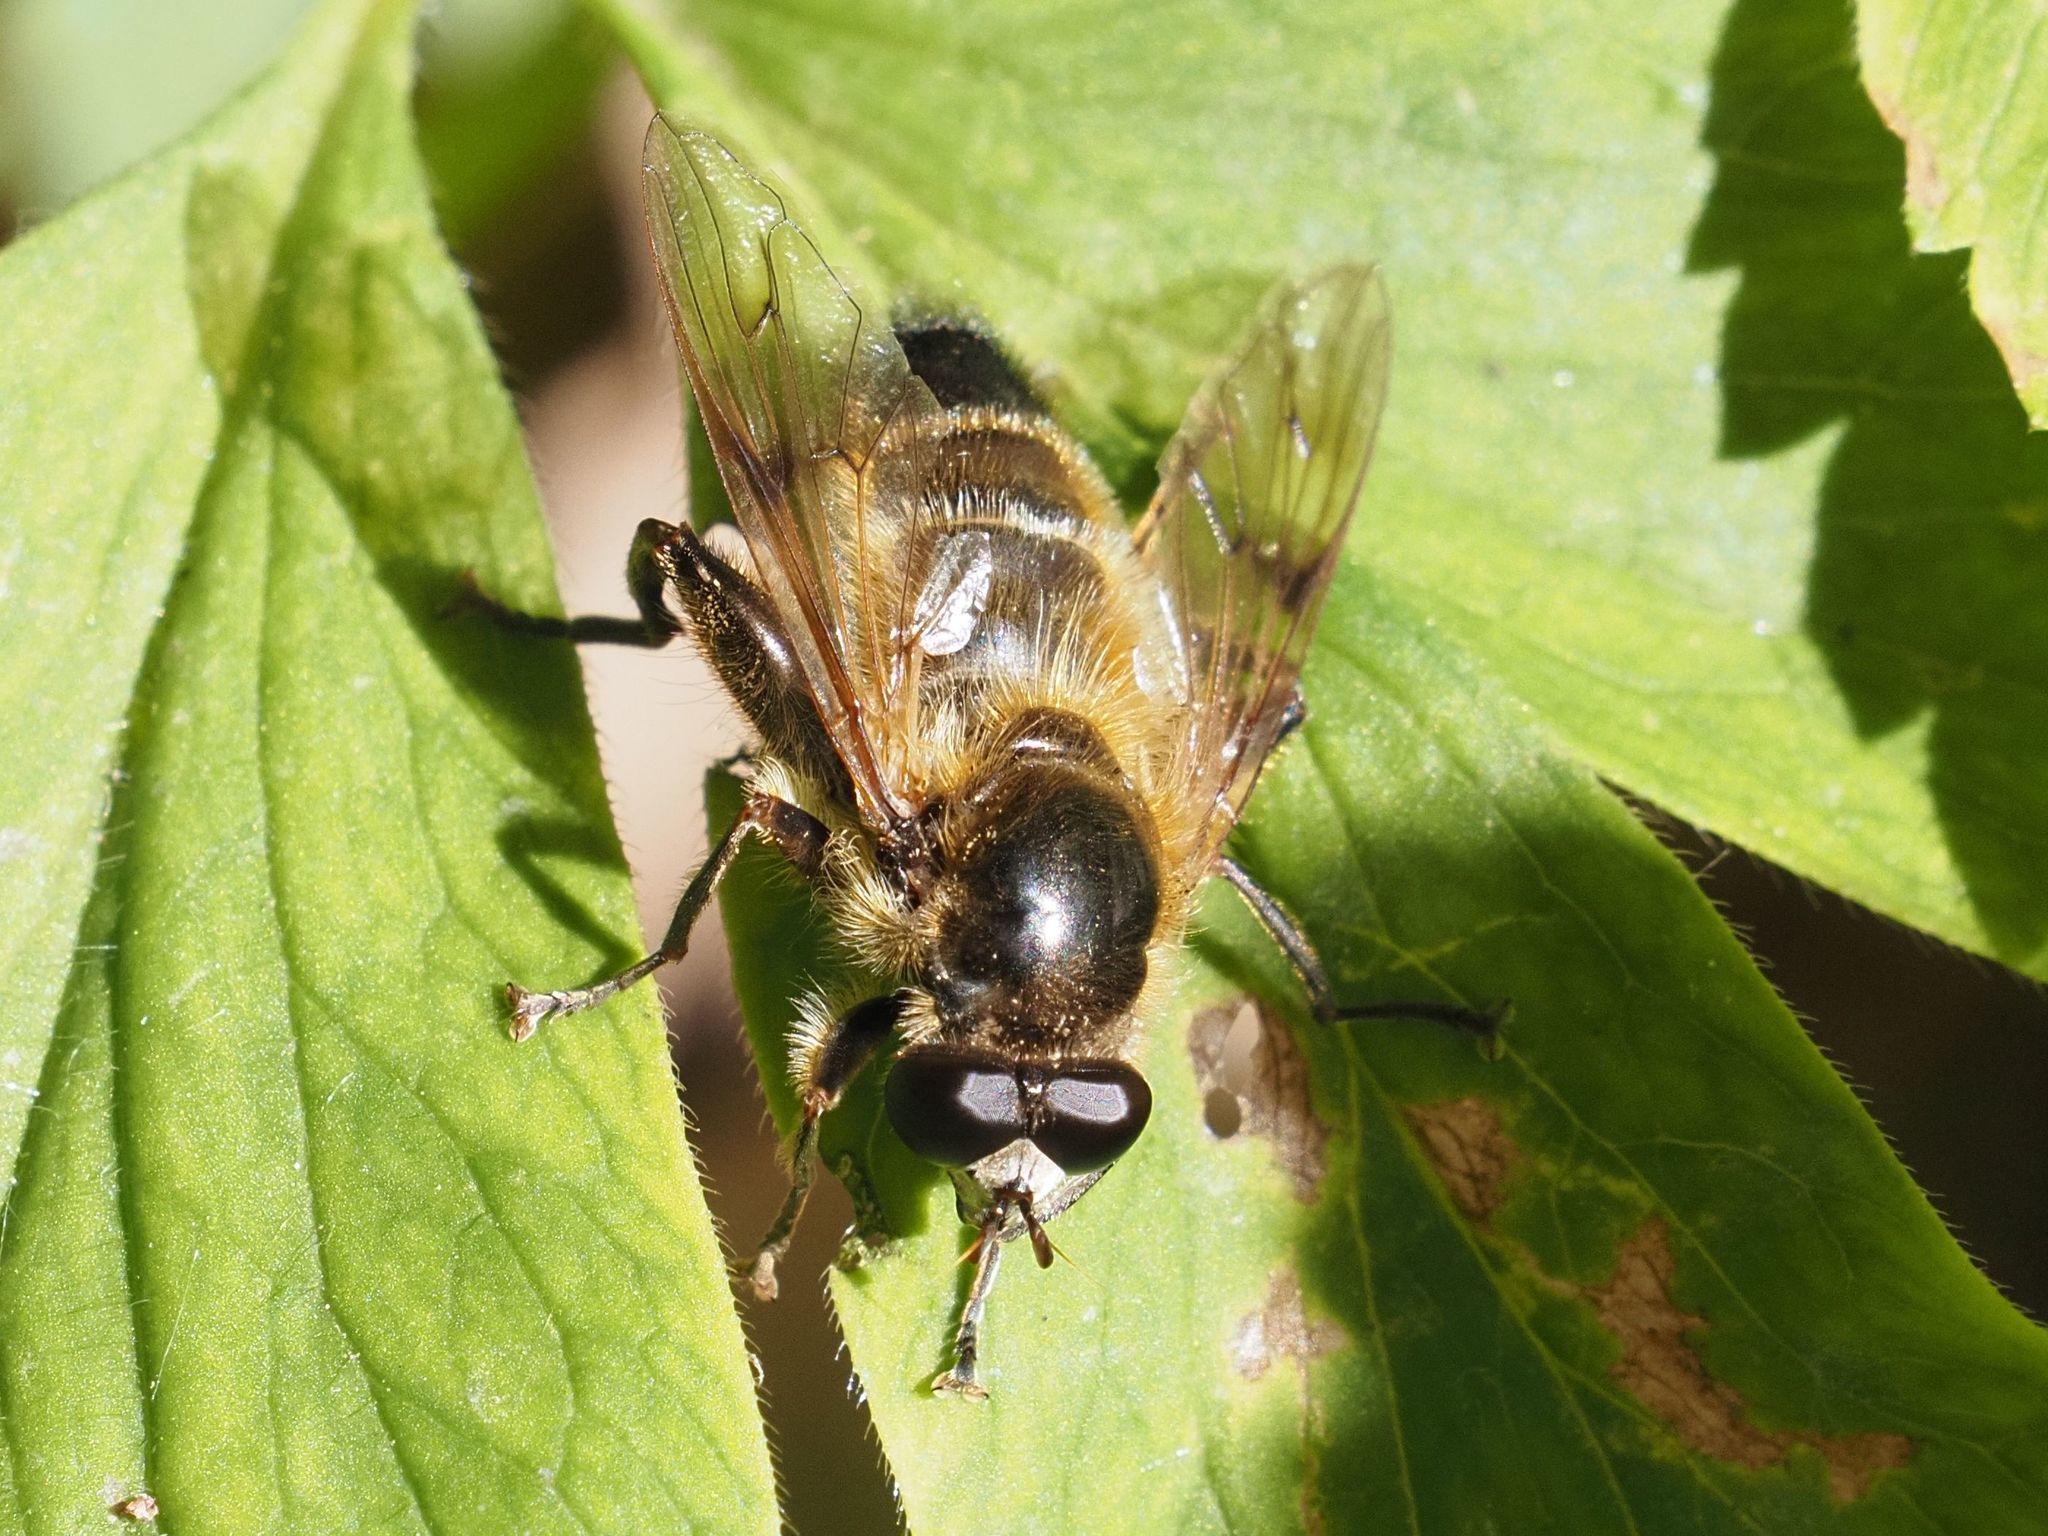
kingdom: Animalia
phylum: Arthropoda
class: Insecta
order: Diptera
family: Syrphidae
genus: Brachypalpus
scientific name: Brachypalpus valgus
